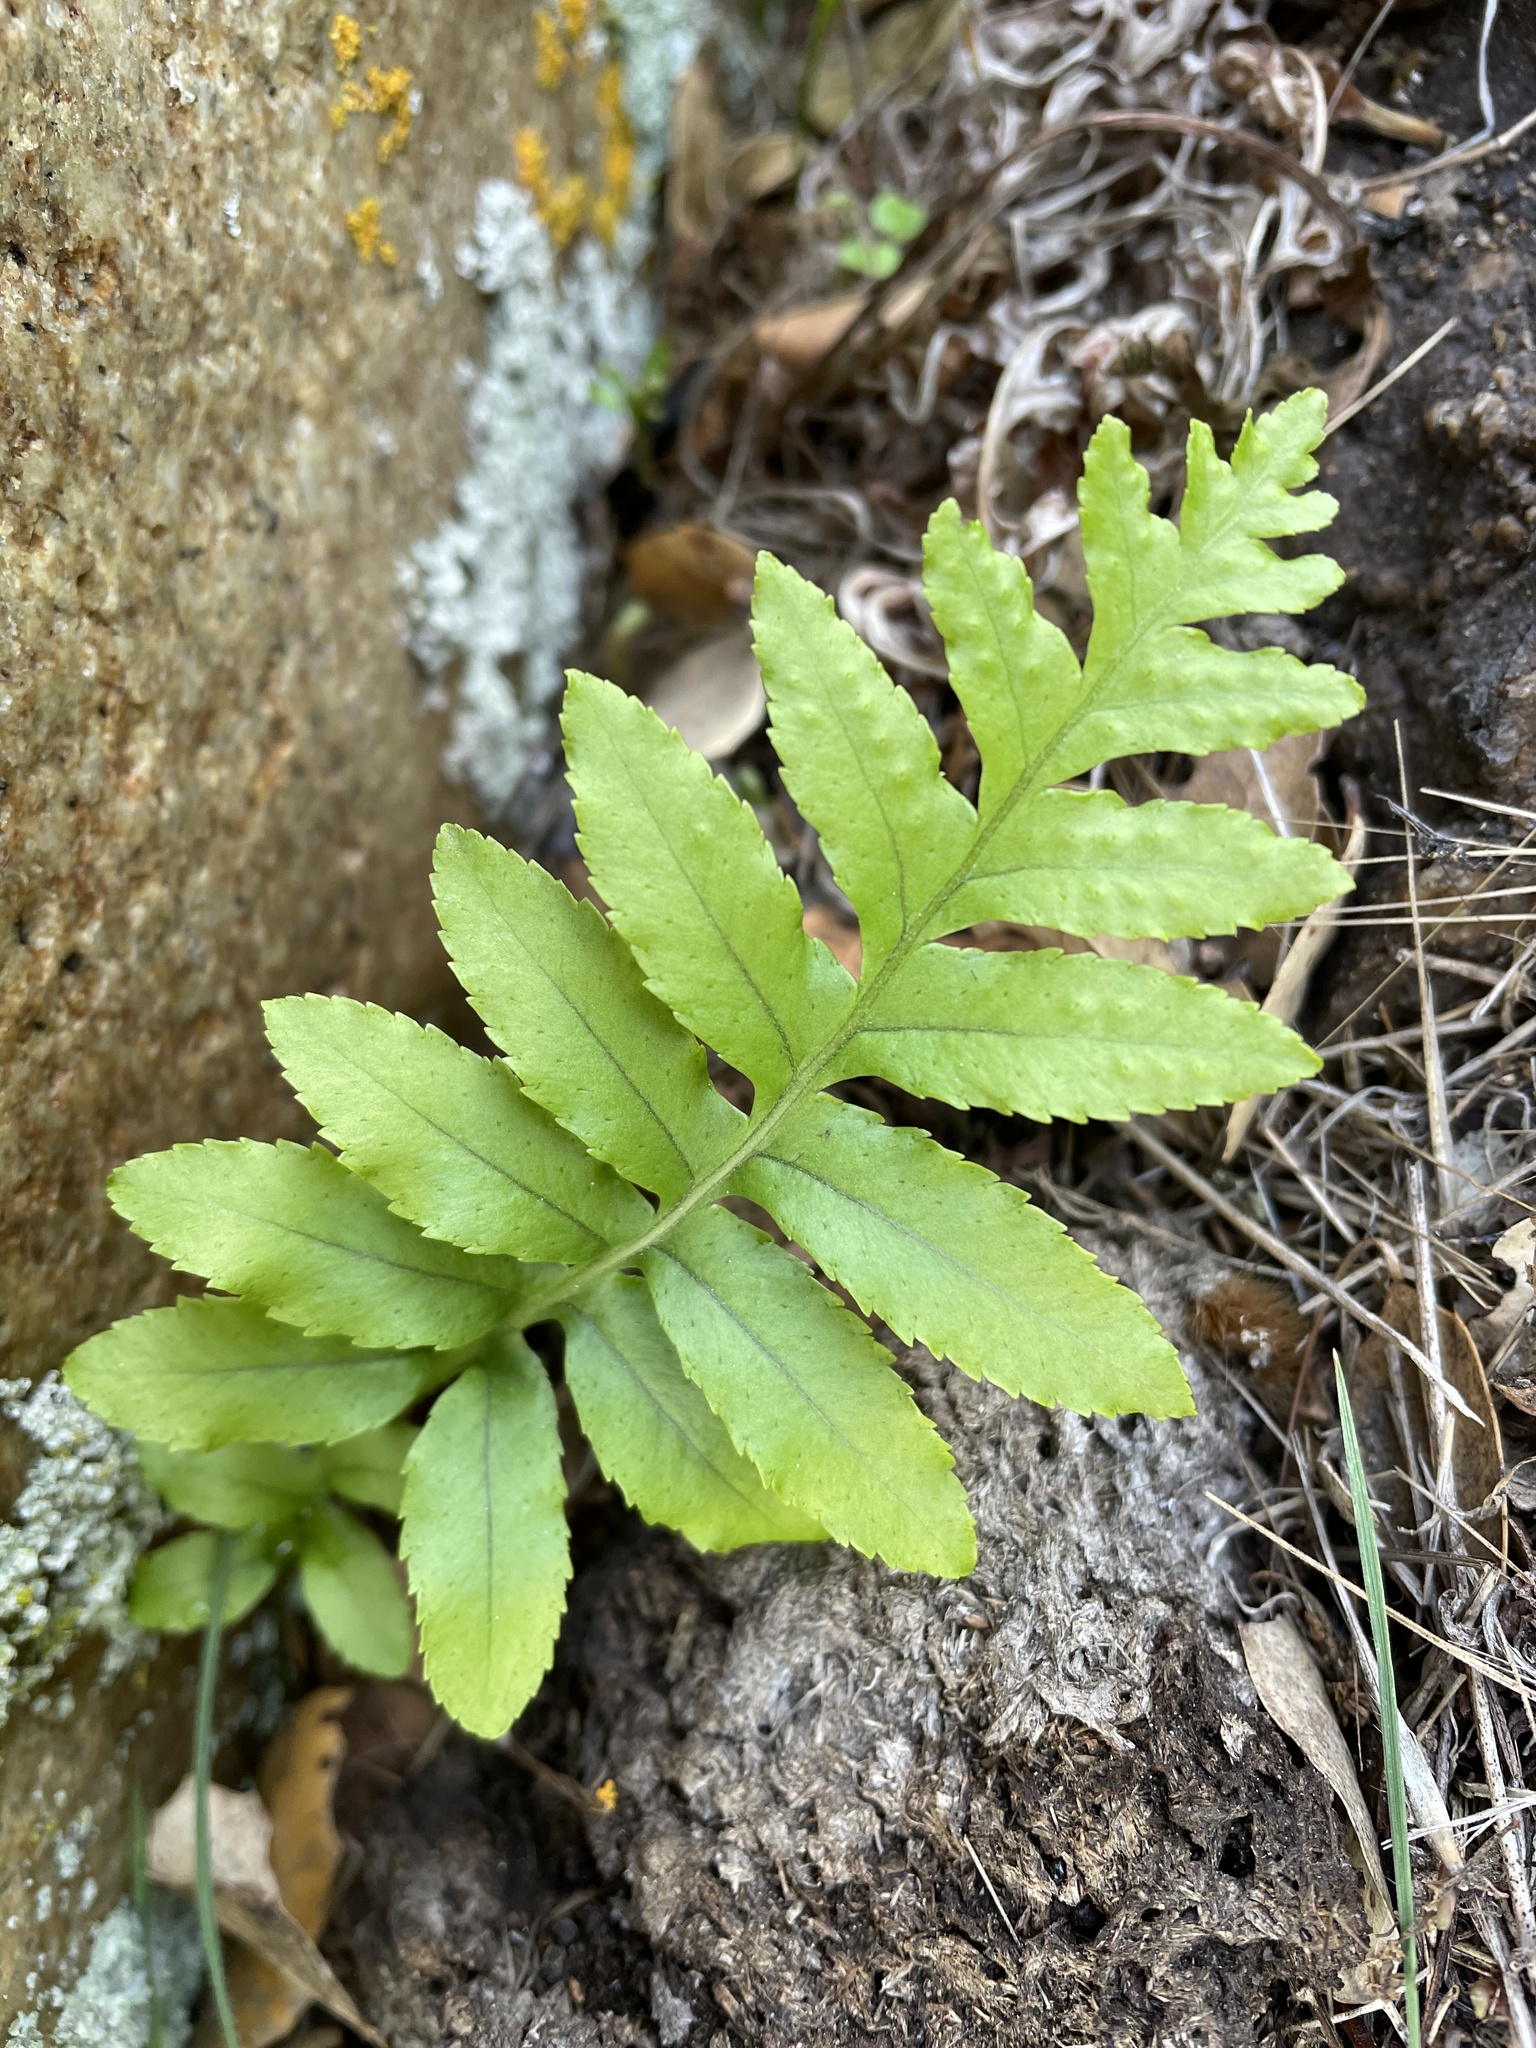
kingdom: Plantae
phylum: Tracheophyta
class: Polypodiopsida
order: Polypodiales
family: Polypodiaceae
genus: Polypodium
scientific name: Polypodium californicum
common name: California polypody
